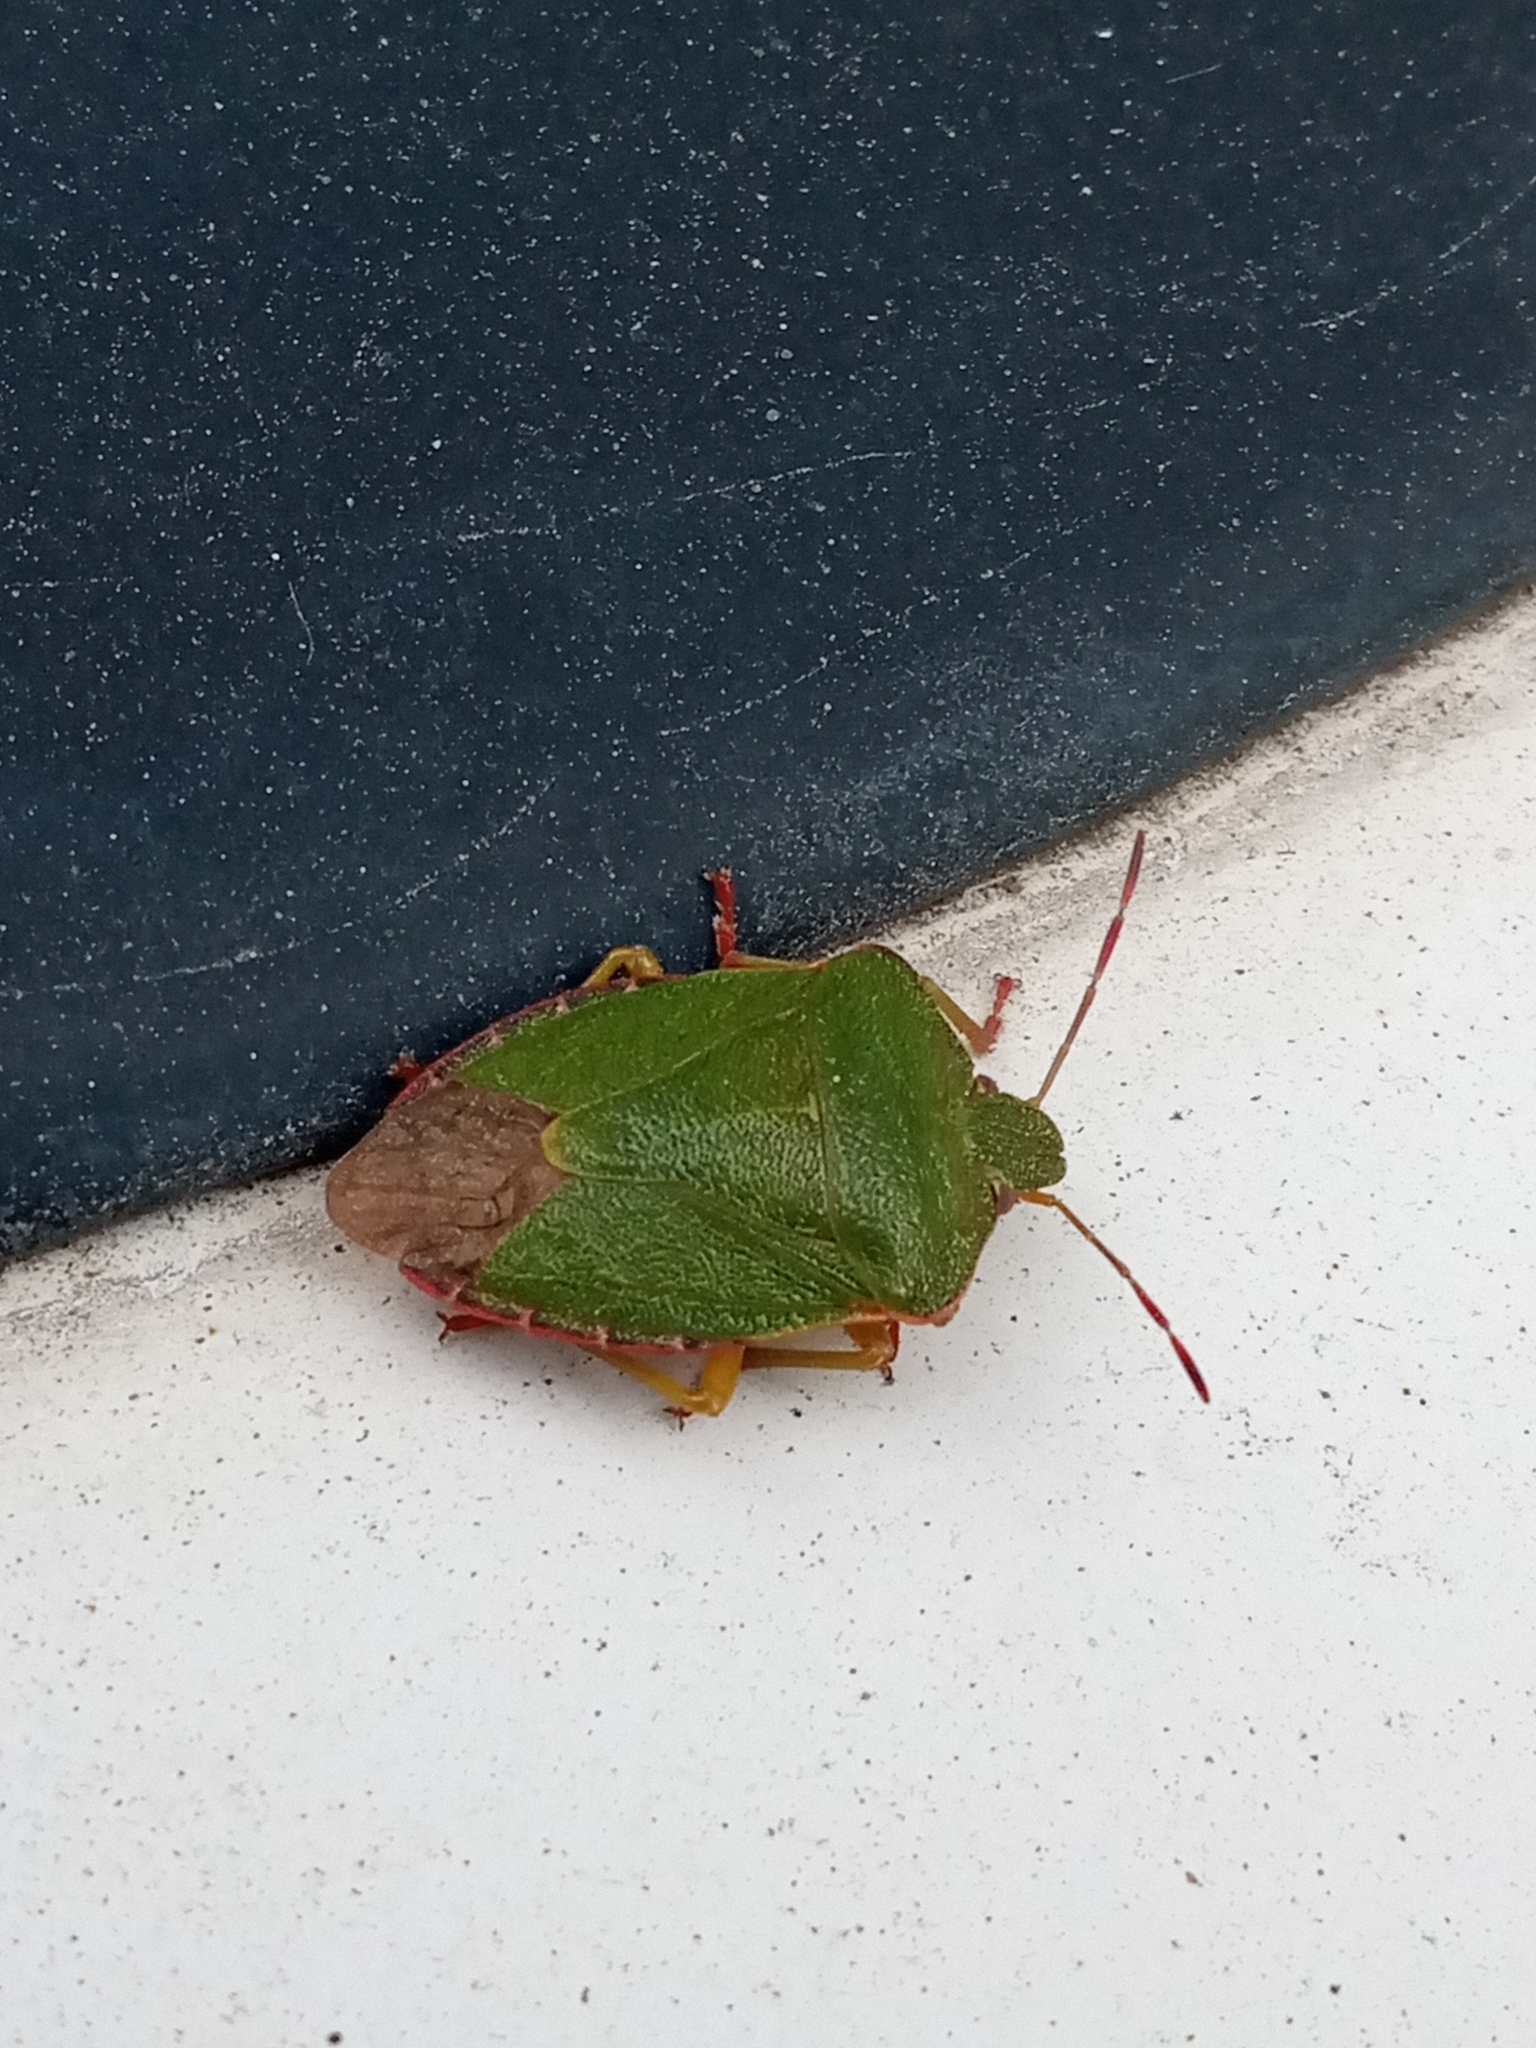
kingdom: Animalia
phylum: Arthropoda
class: Insecta
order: Hemiptera
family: Pentatomidae
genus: Palomena
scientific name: Palomena prasina
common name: Green shieldbug
